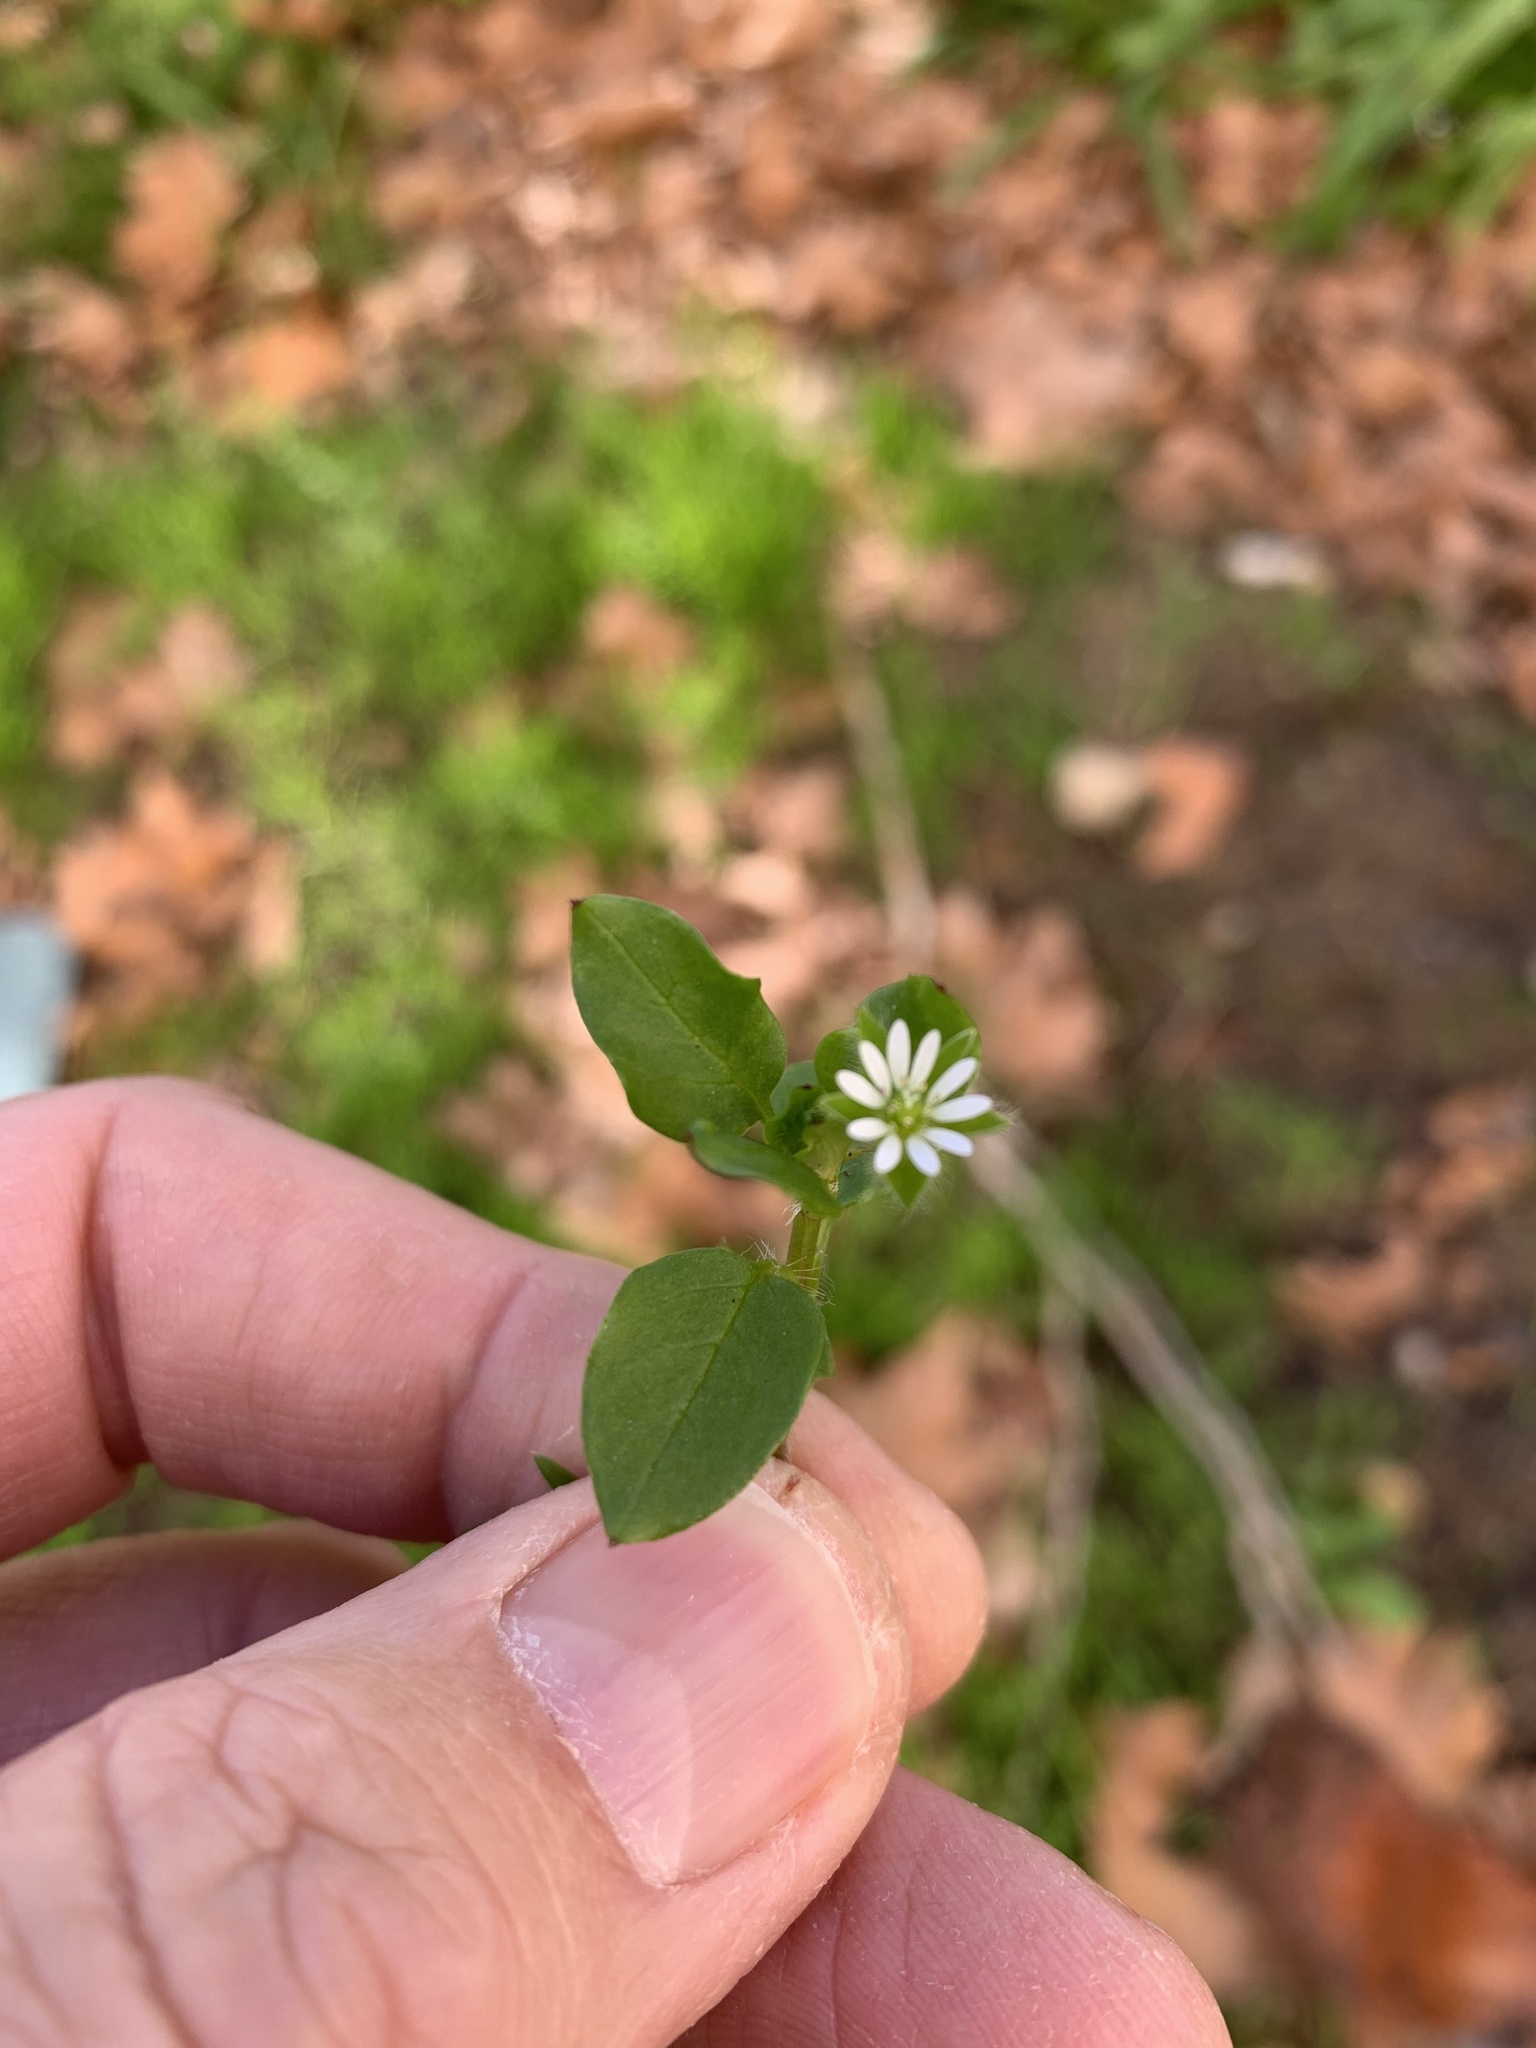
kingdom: Plantae
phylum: Tracheophyta
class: Magnoliopsida
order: Caryophyllales
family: Caryophyllaceae
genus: Stellaria
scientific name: Stellaria media
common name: Common chickweed
